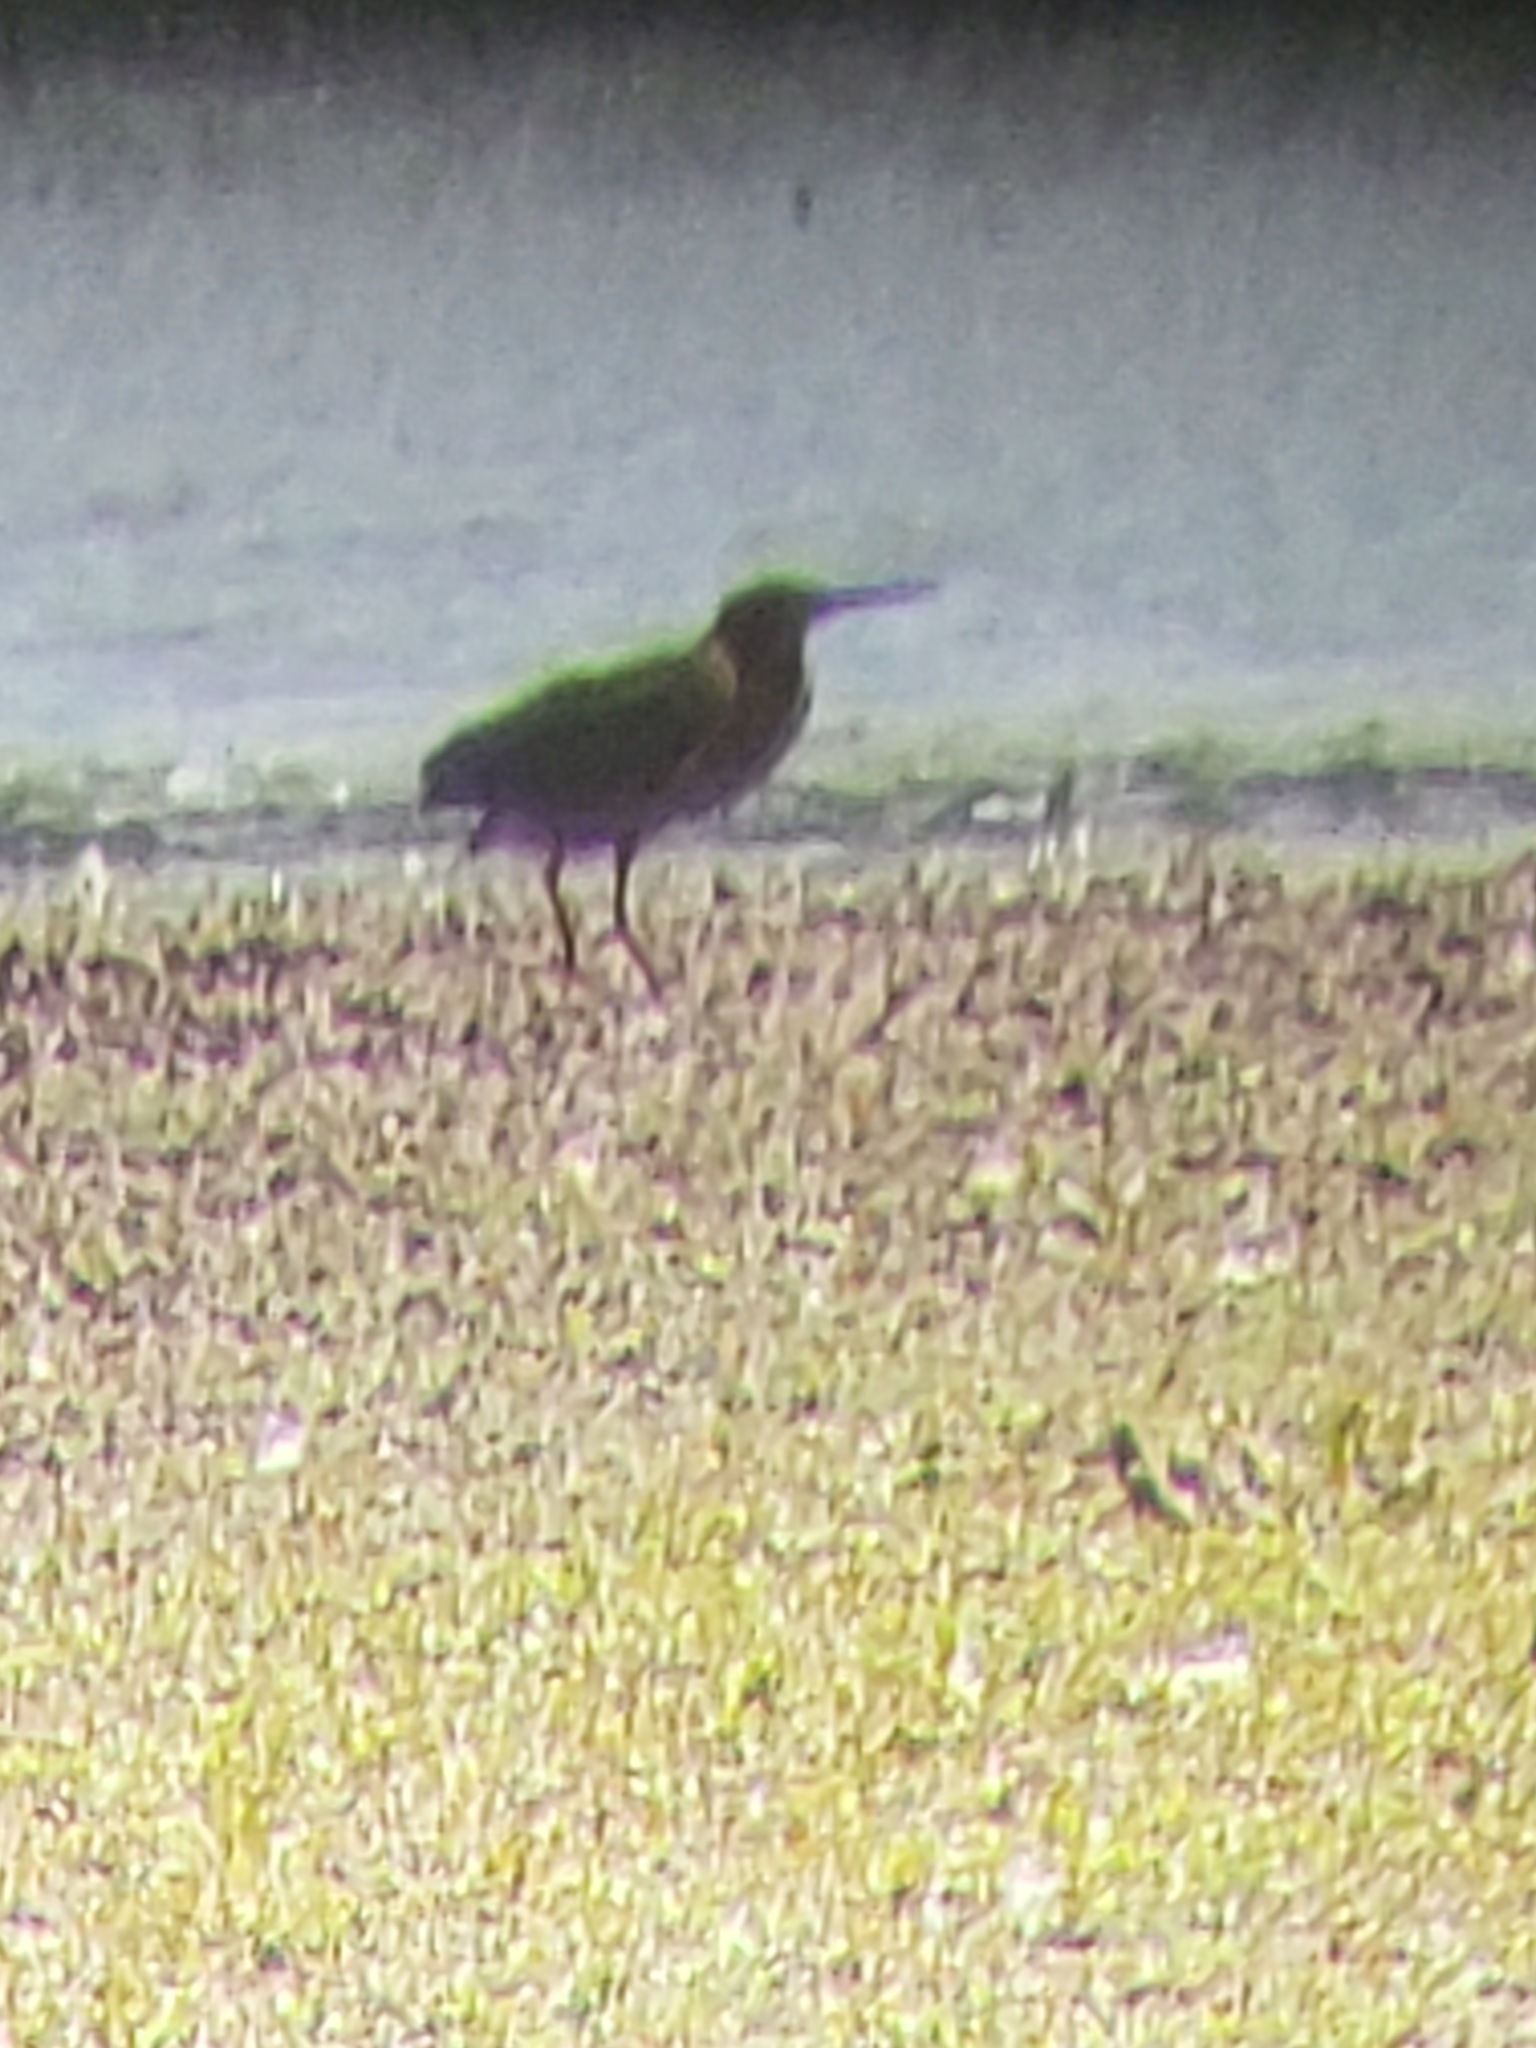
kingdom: Animalia
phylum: Chordata
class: Aves
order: Pelecaniformes
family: Ardeidae
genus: Butorides
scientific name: Butorides virescens
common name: Green heron
